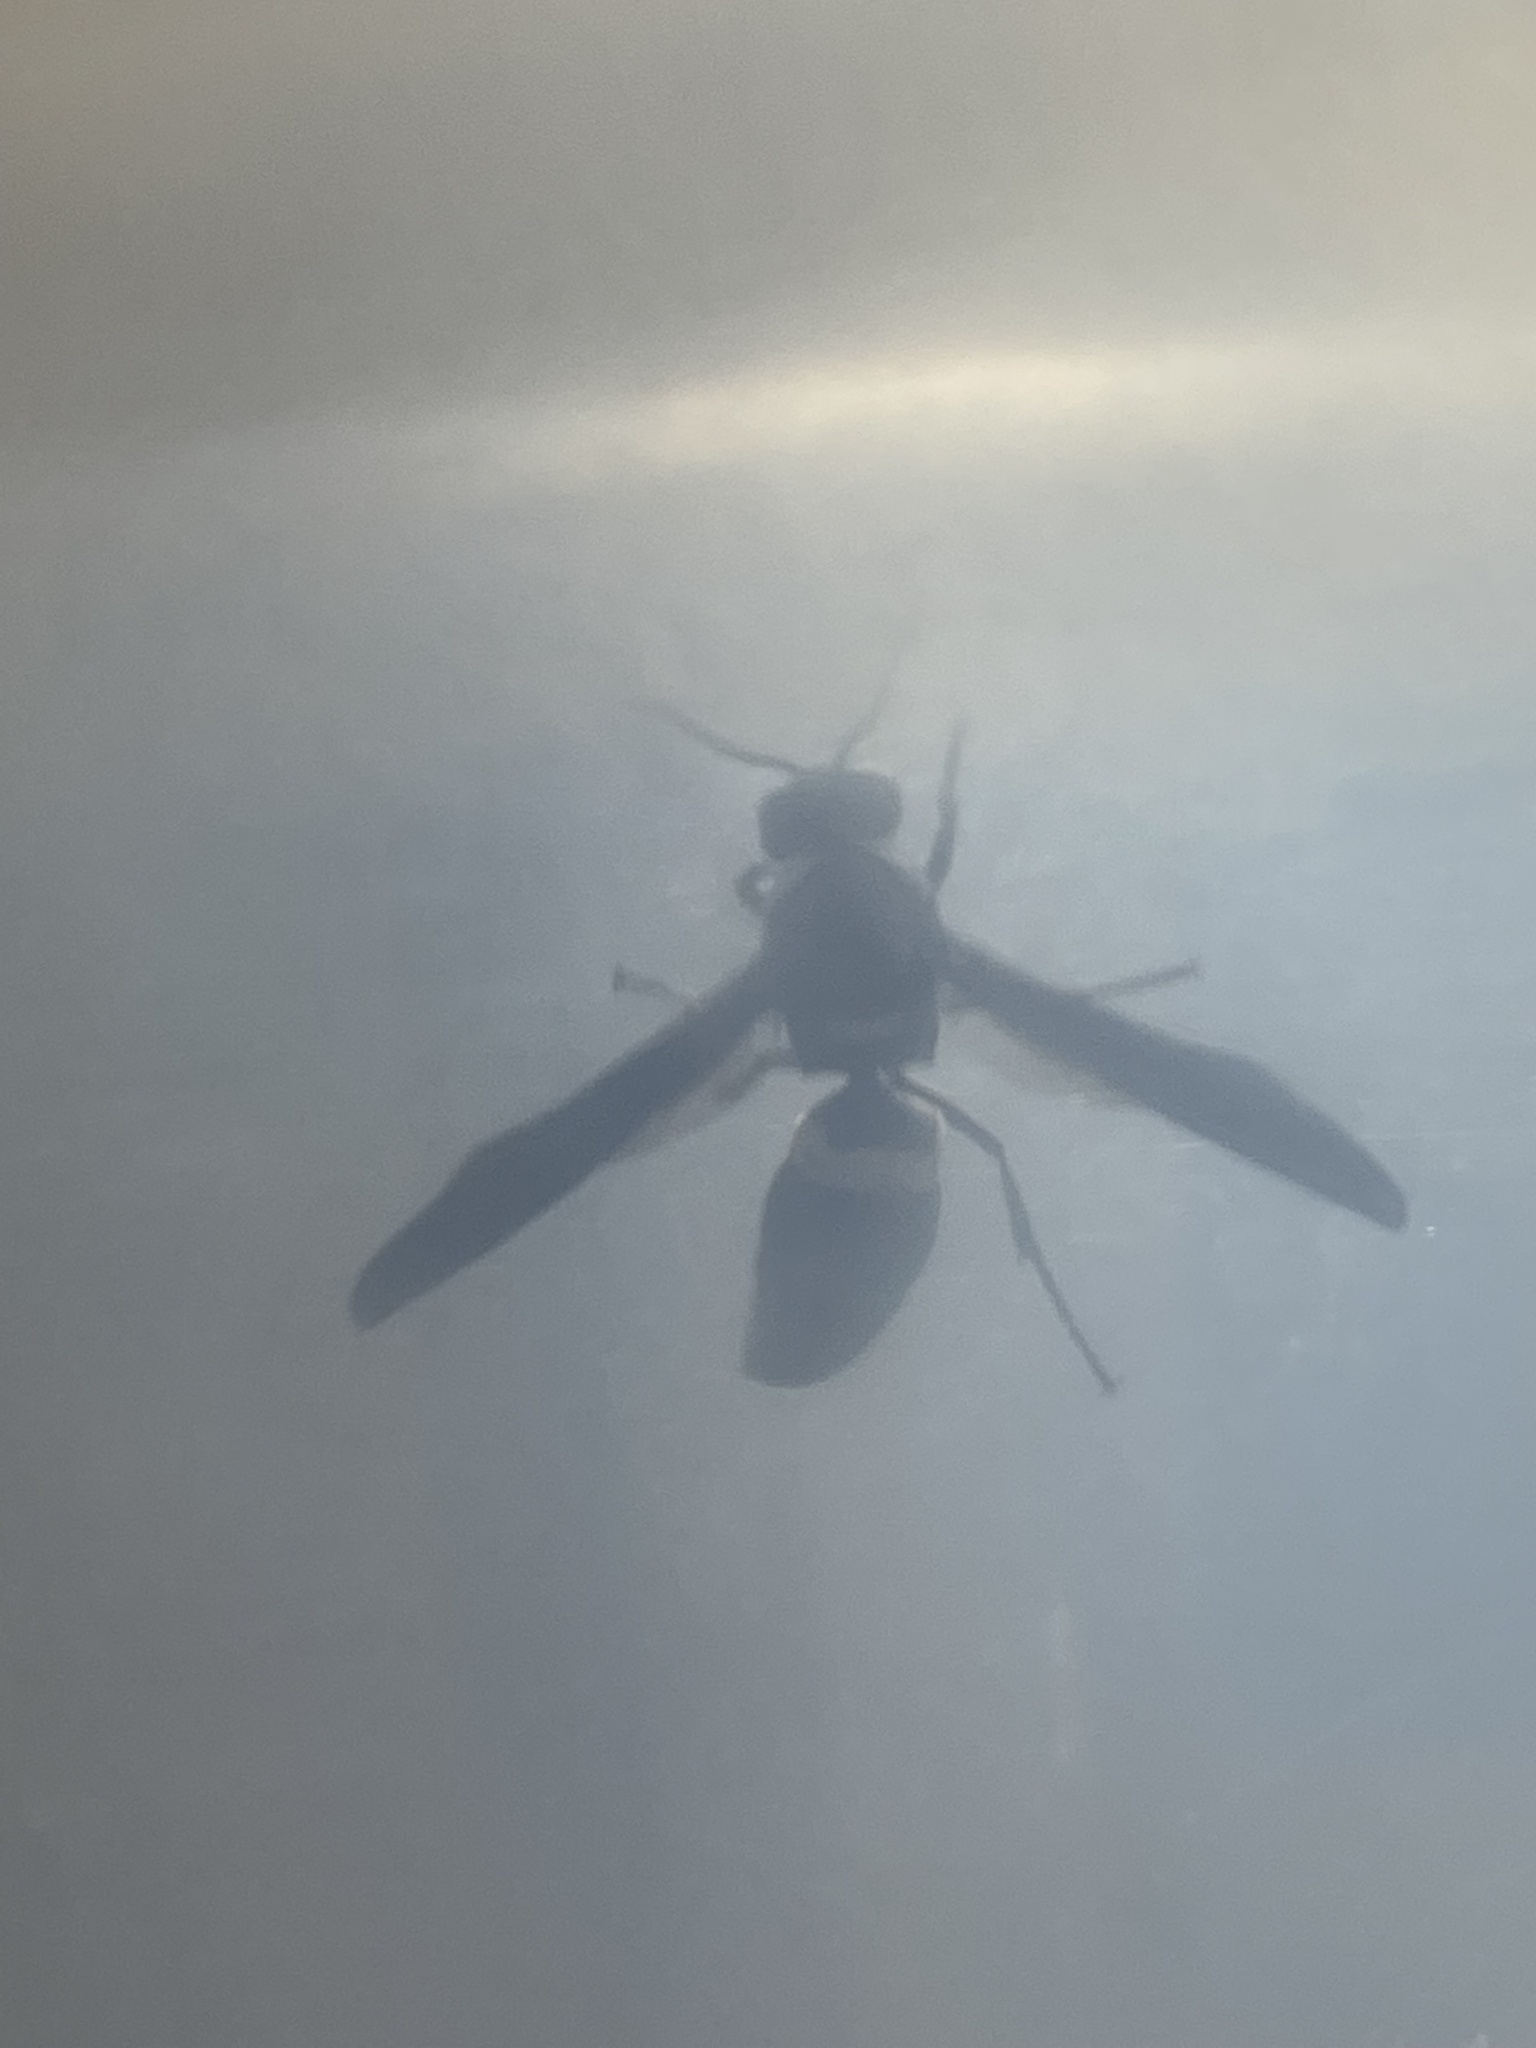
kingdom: Animalia
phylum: Arthropoda
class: Insecta
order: Hymenoptera
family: Eumenidae
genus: Monobia
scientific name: Monobia quadridens
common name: Four-toothed mason wasp
